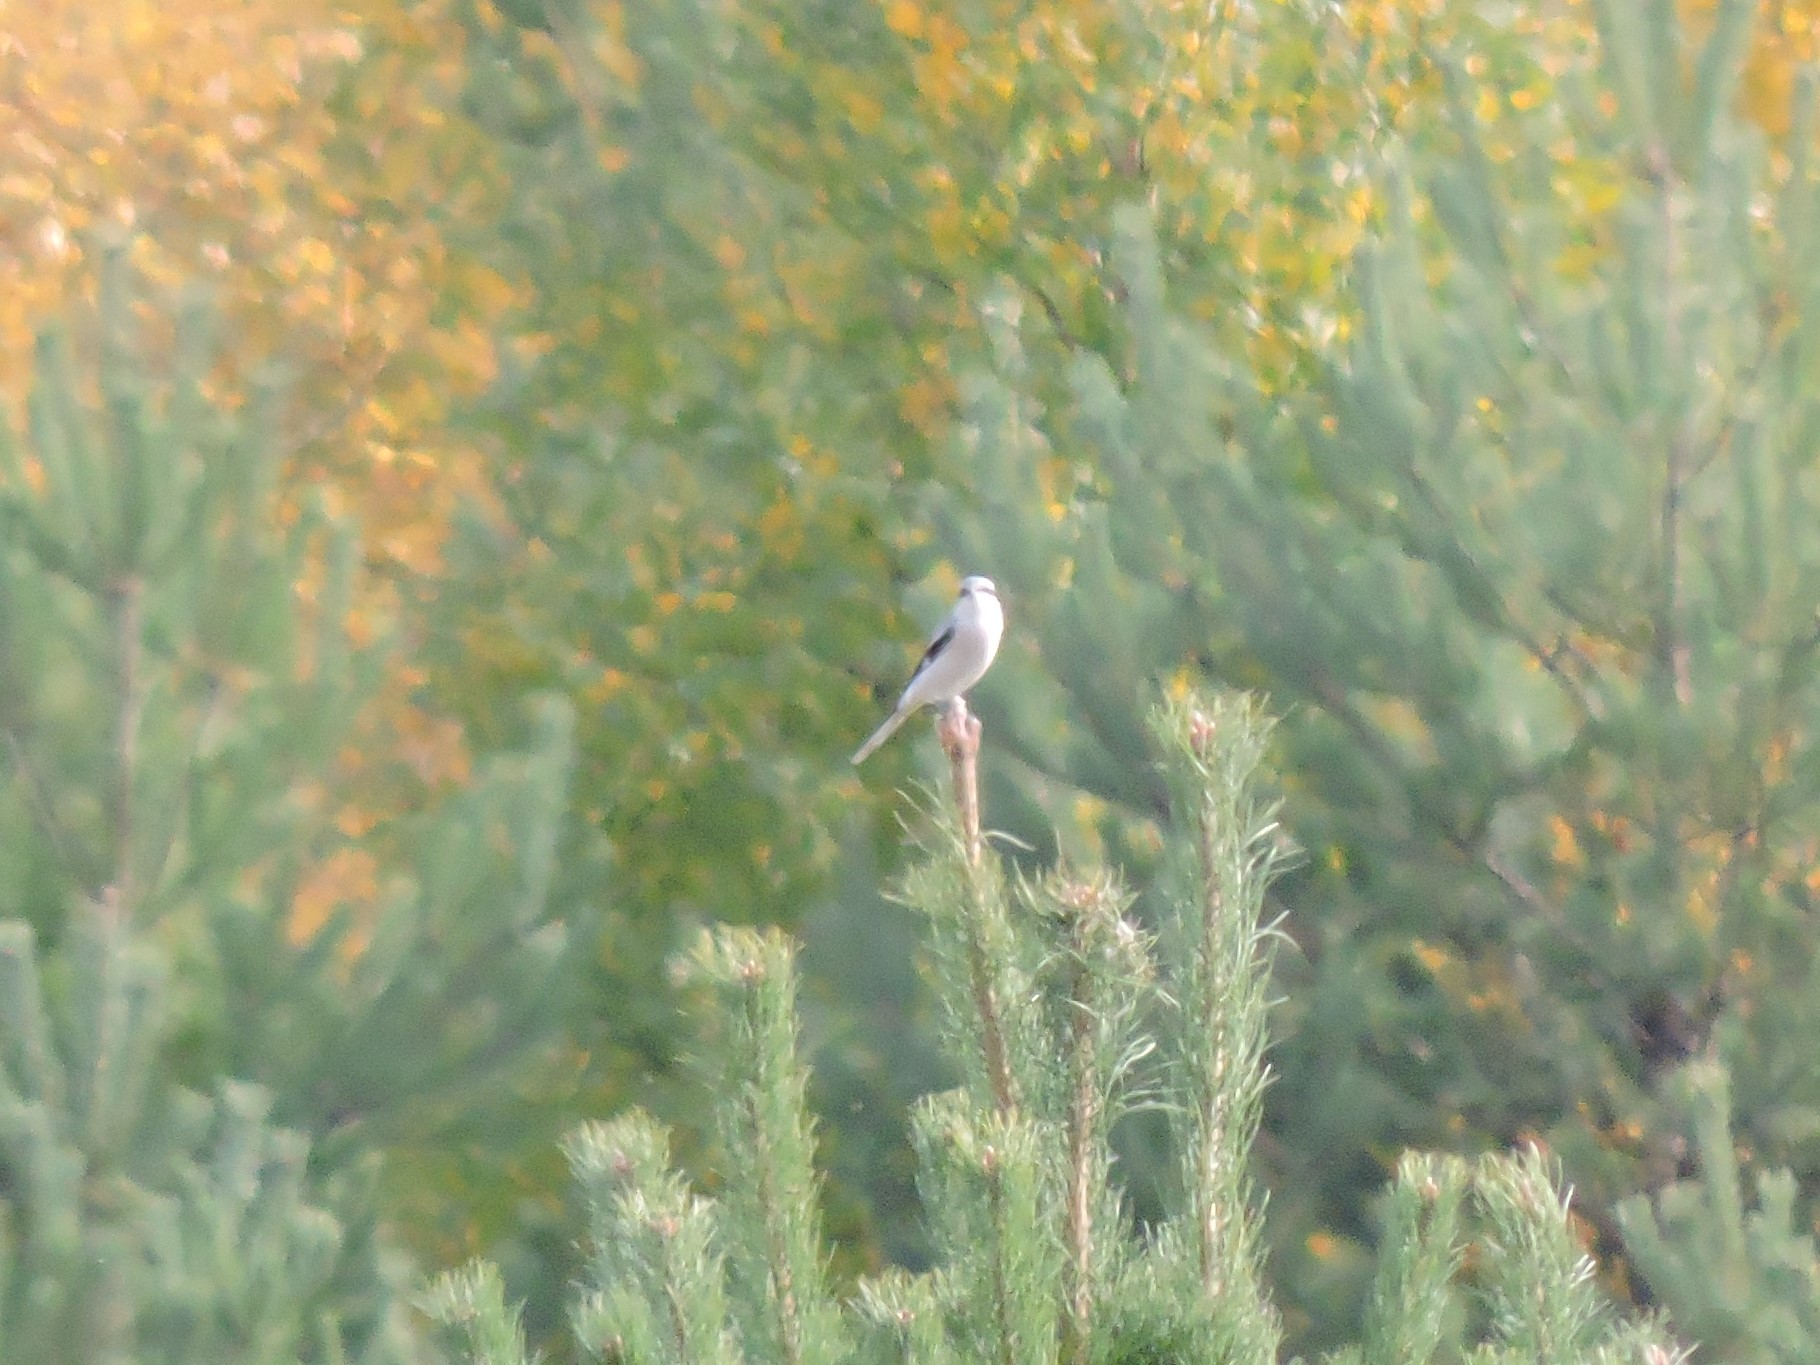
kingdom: Animalia
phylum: Chordata
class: Aves
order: Passeriformes
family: Laniidae
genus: Lanius
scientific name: Lanius excubitor
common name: Great grey shrike
